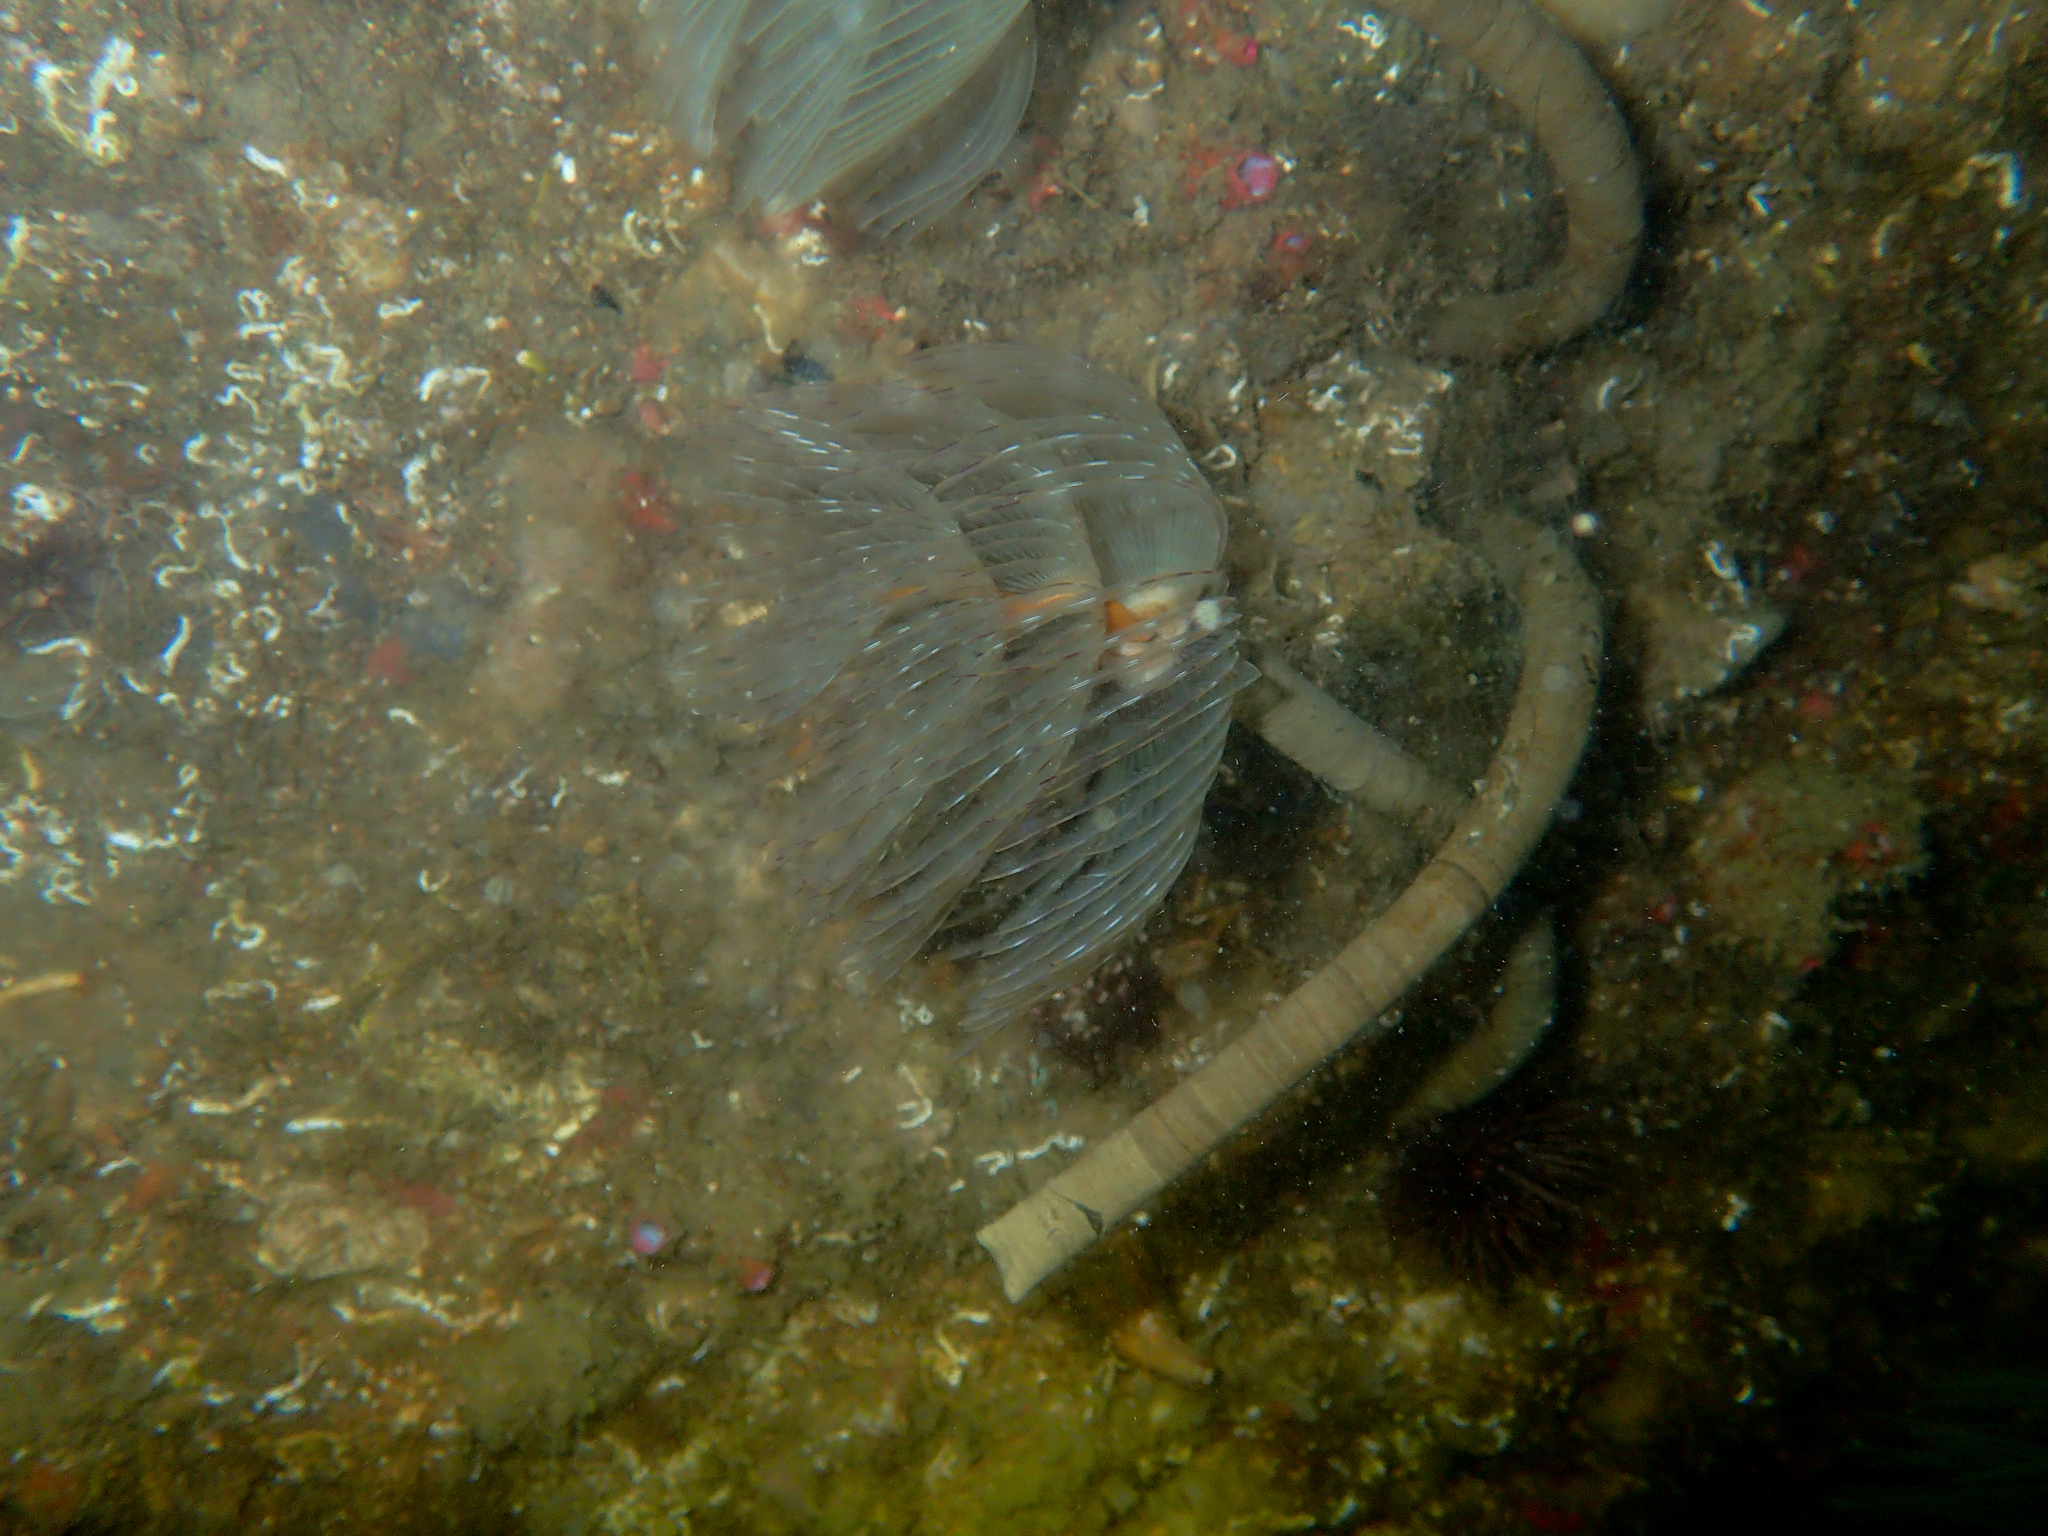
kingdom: Animalia
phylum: Annelida
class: Polychaeta
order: Sabellida
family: Sabellidae
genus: Sabella
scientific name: Sabella spallanzanii
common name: Feather duster worm
